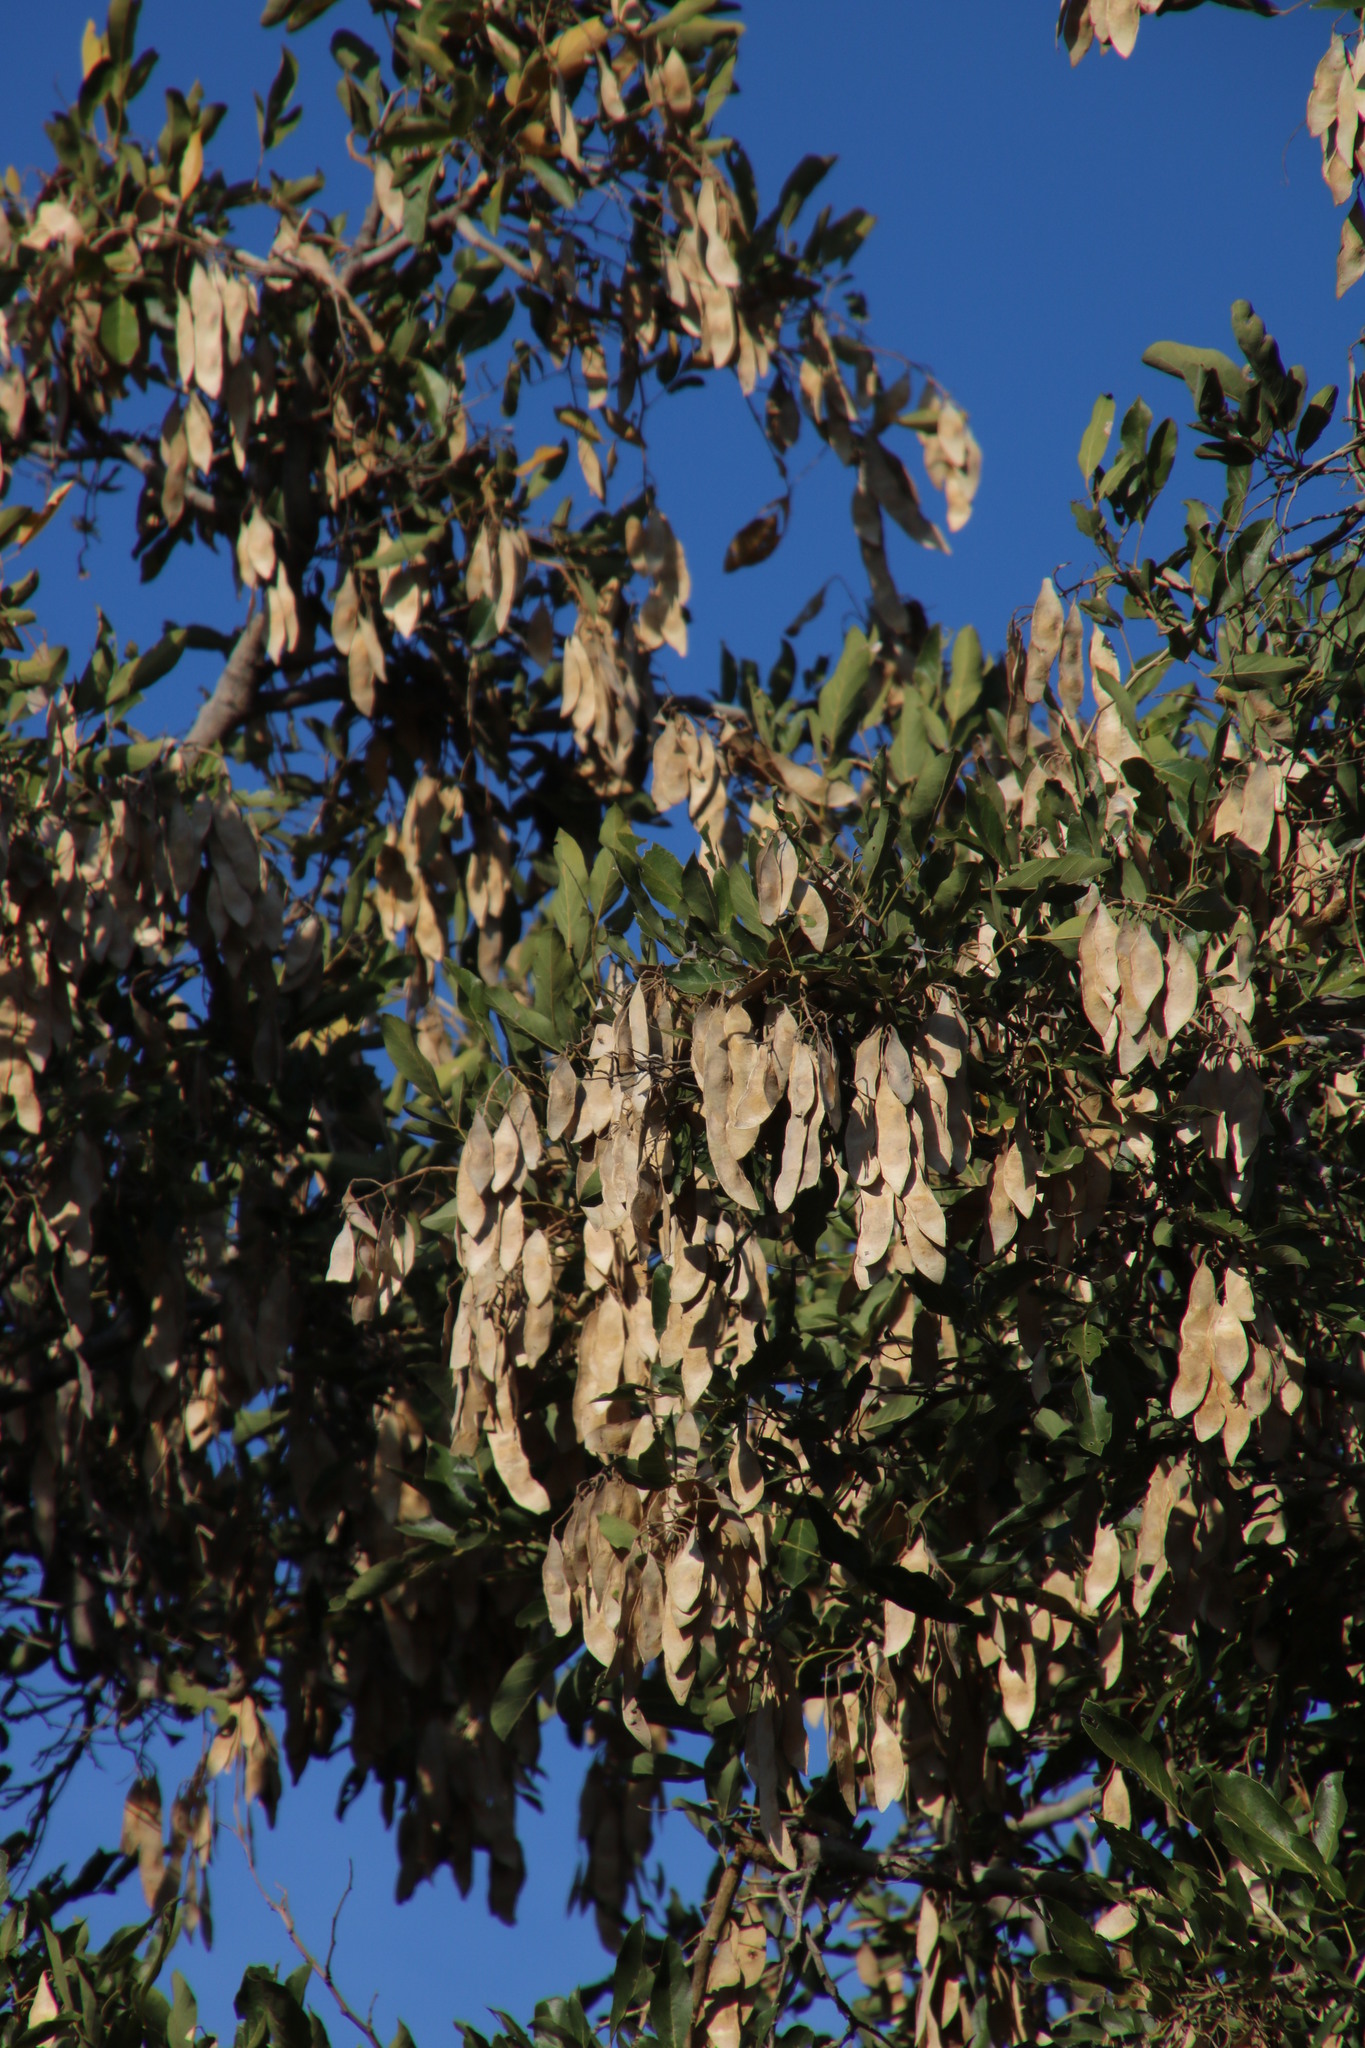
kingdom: Plantae
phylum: Tracheophyta
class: Magnoliopsida
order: Fabales
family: Fabaceae
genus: Philenoptera
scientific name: Philenoptera violacea
